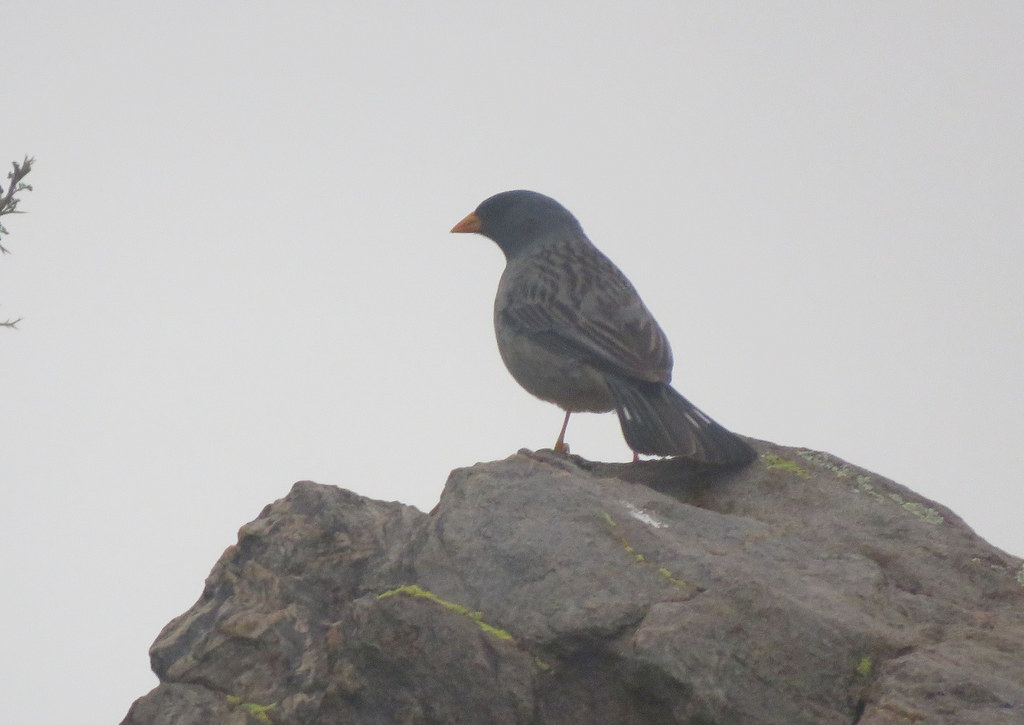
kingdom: Animalia
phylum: Chordata
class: Aves
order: Passeriformes
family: Thraupidae
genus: Porphyrospiza
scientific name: Porphyrospiza alaudina
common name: Band-tailed sierra finch
